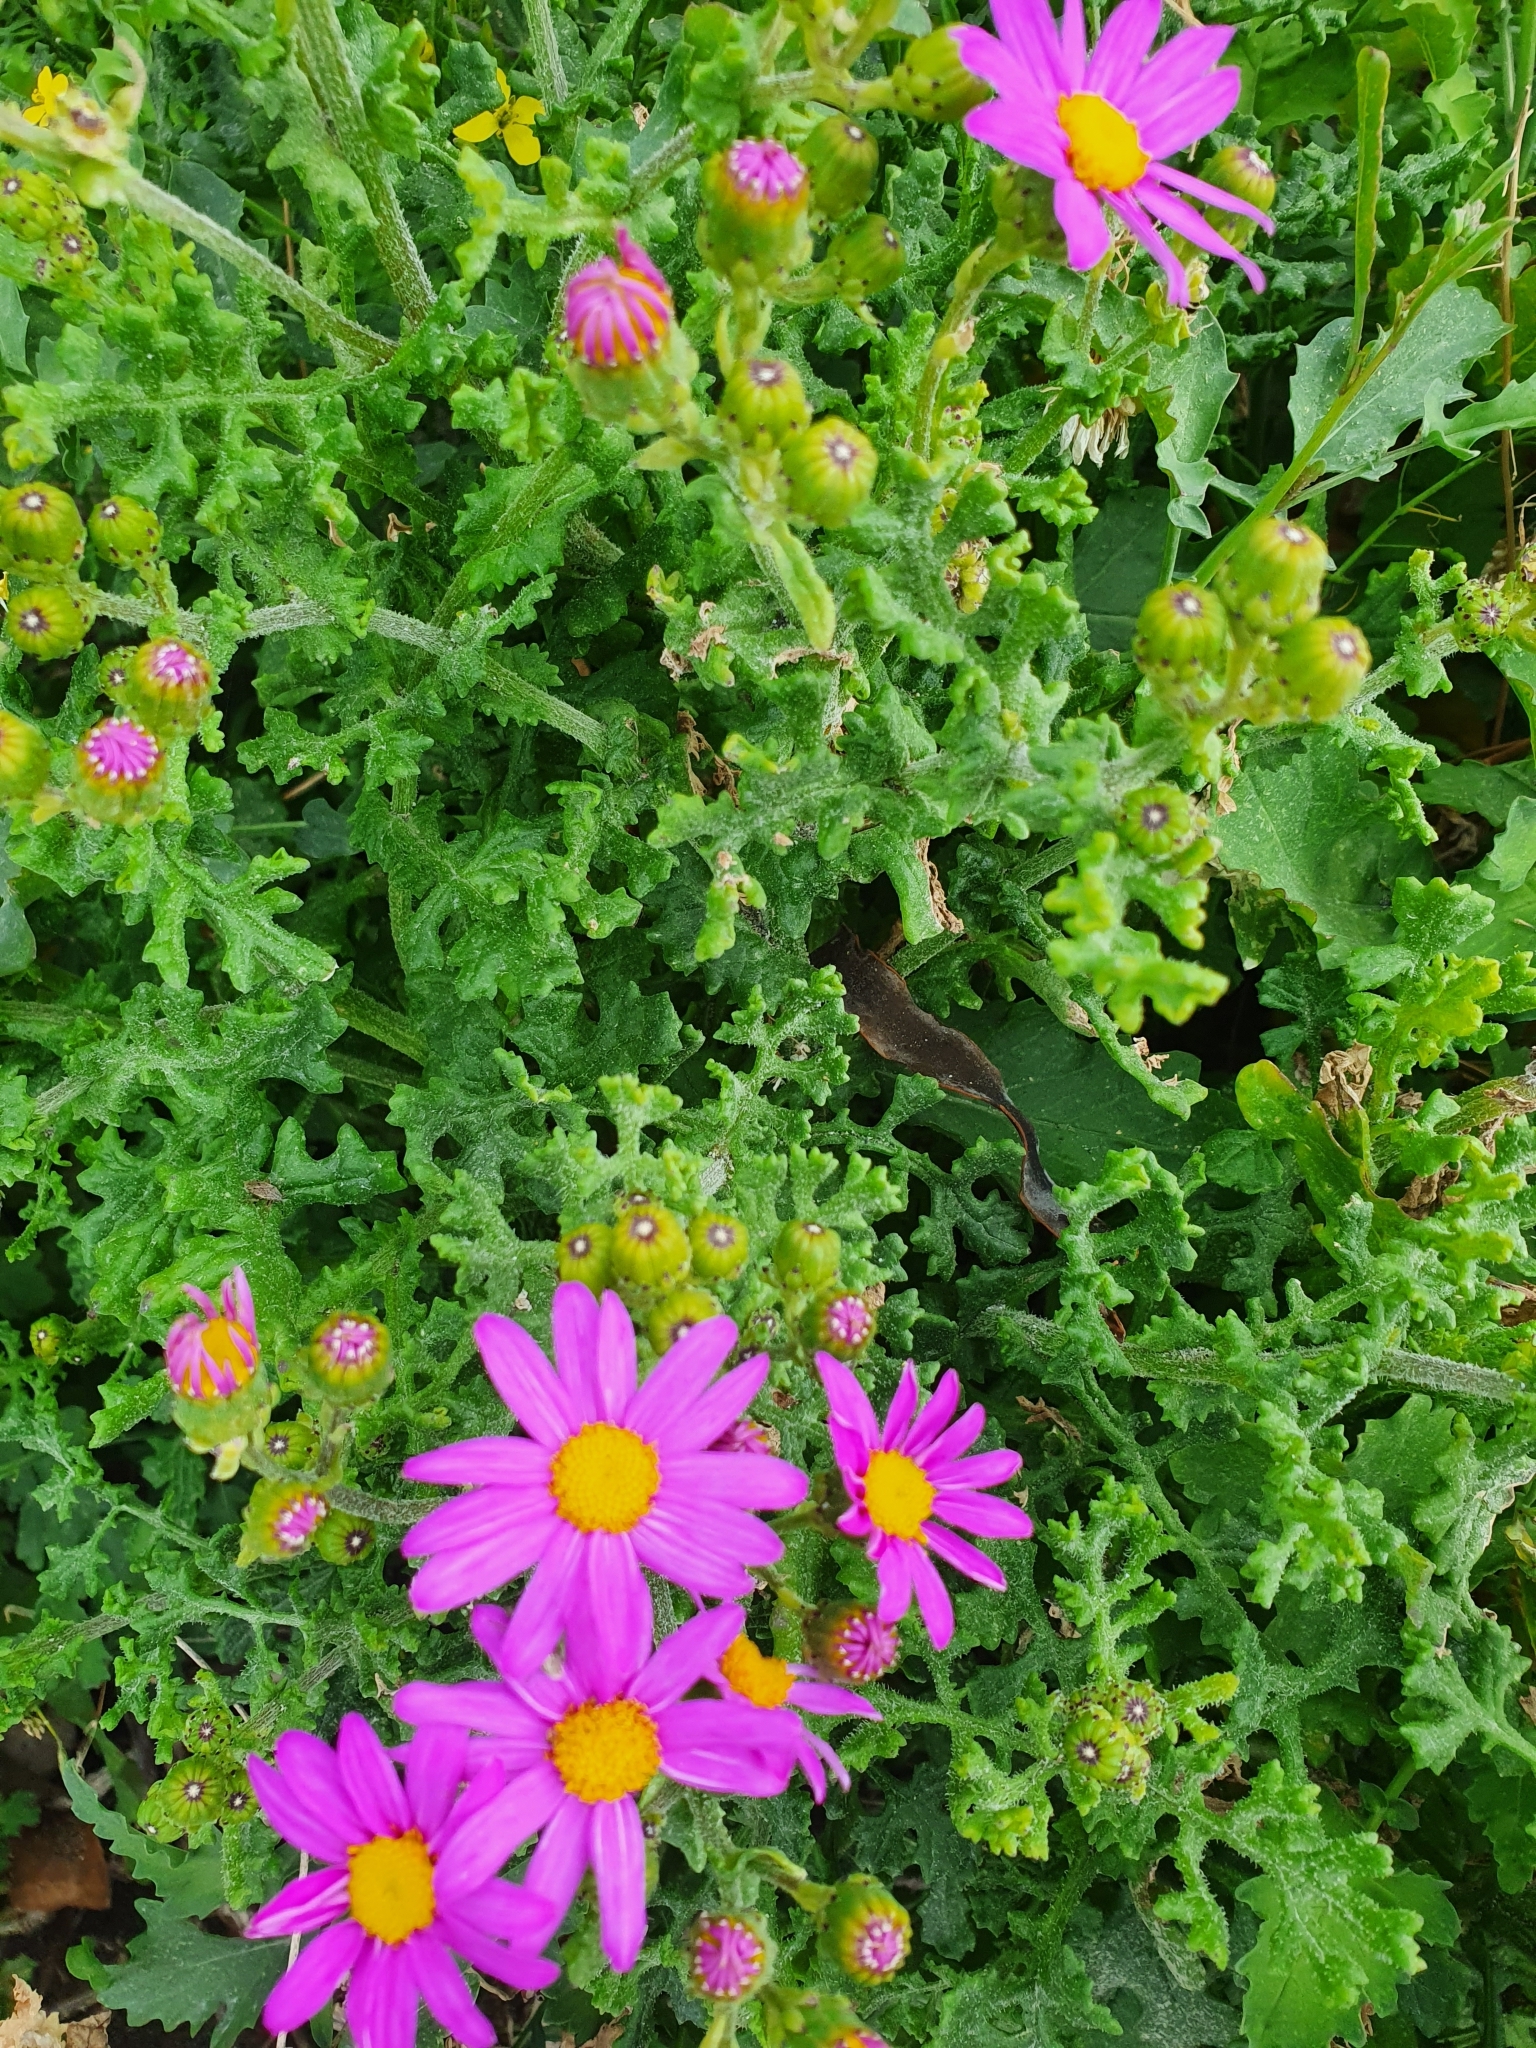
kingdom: Plantae
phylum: Tracheophyta
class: Magnoliopsida
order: Asterales
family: Asteraceae
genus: Senecio
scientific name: Senecio elegans
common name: Purple groundsel
